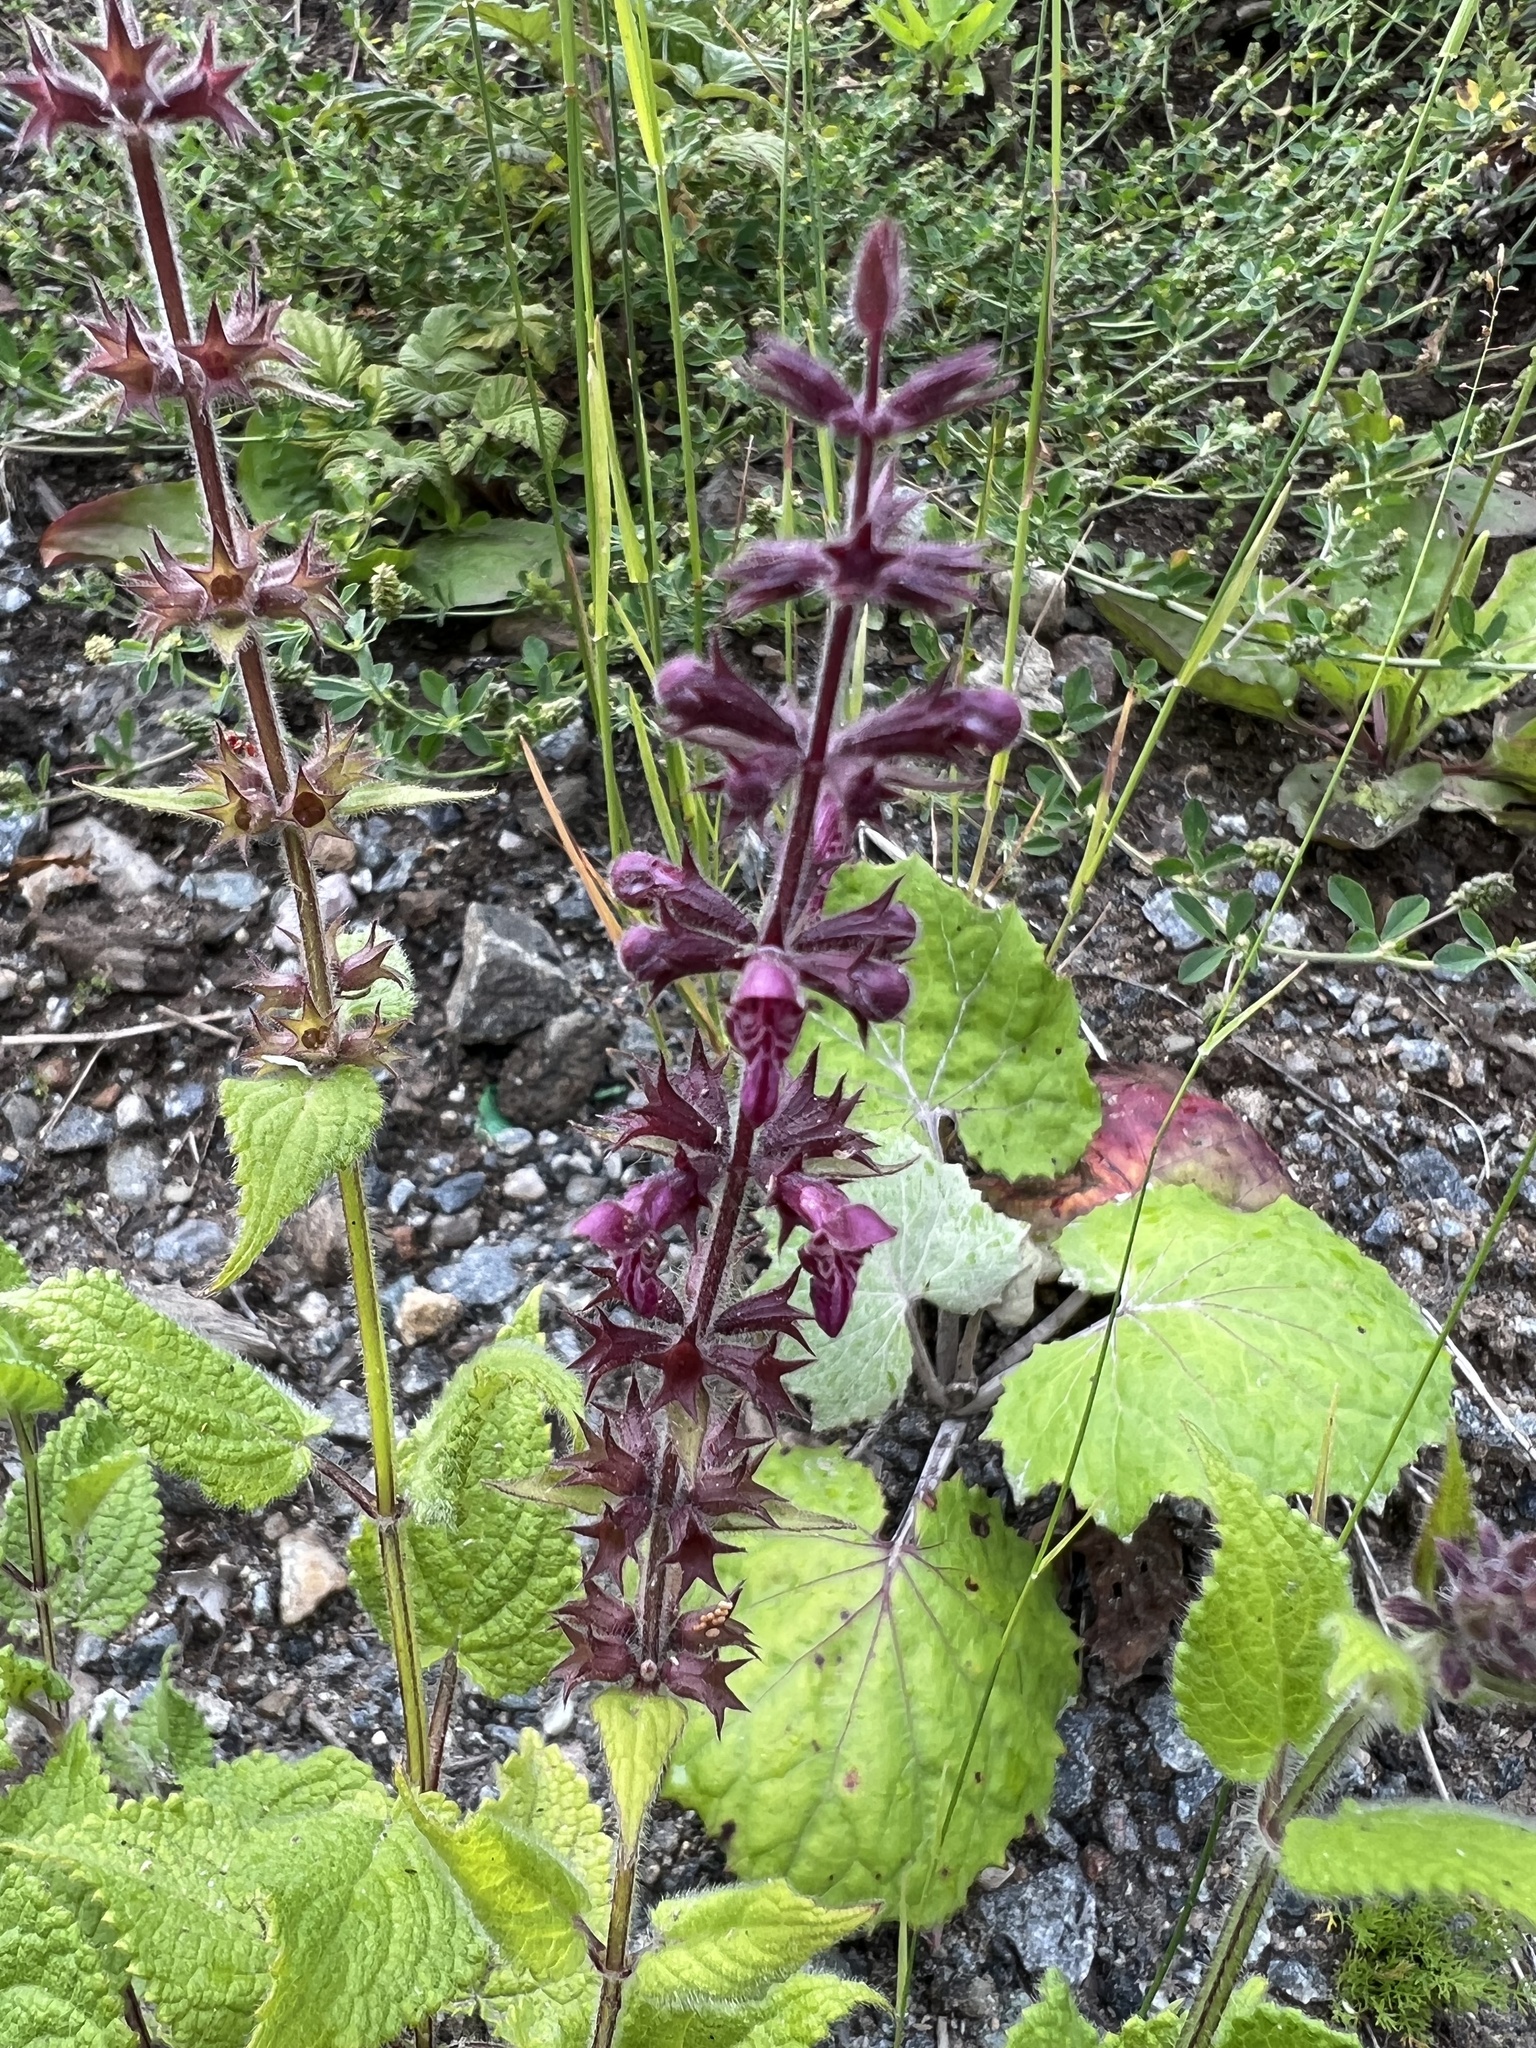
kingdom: Plantae
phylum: Tracheophyta
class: Magnoliopsida
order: Lamiales
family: Lamiaceae
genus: Stachys
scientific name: Stachys sylvatica
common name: Hedge woundwort
